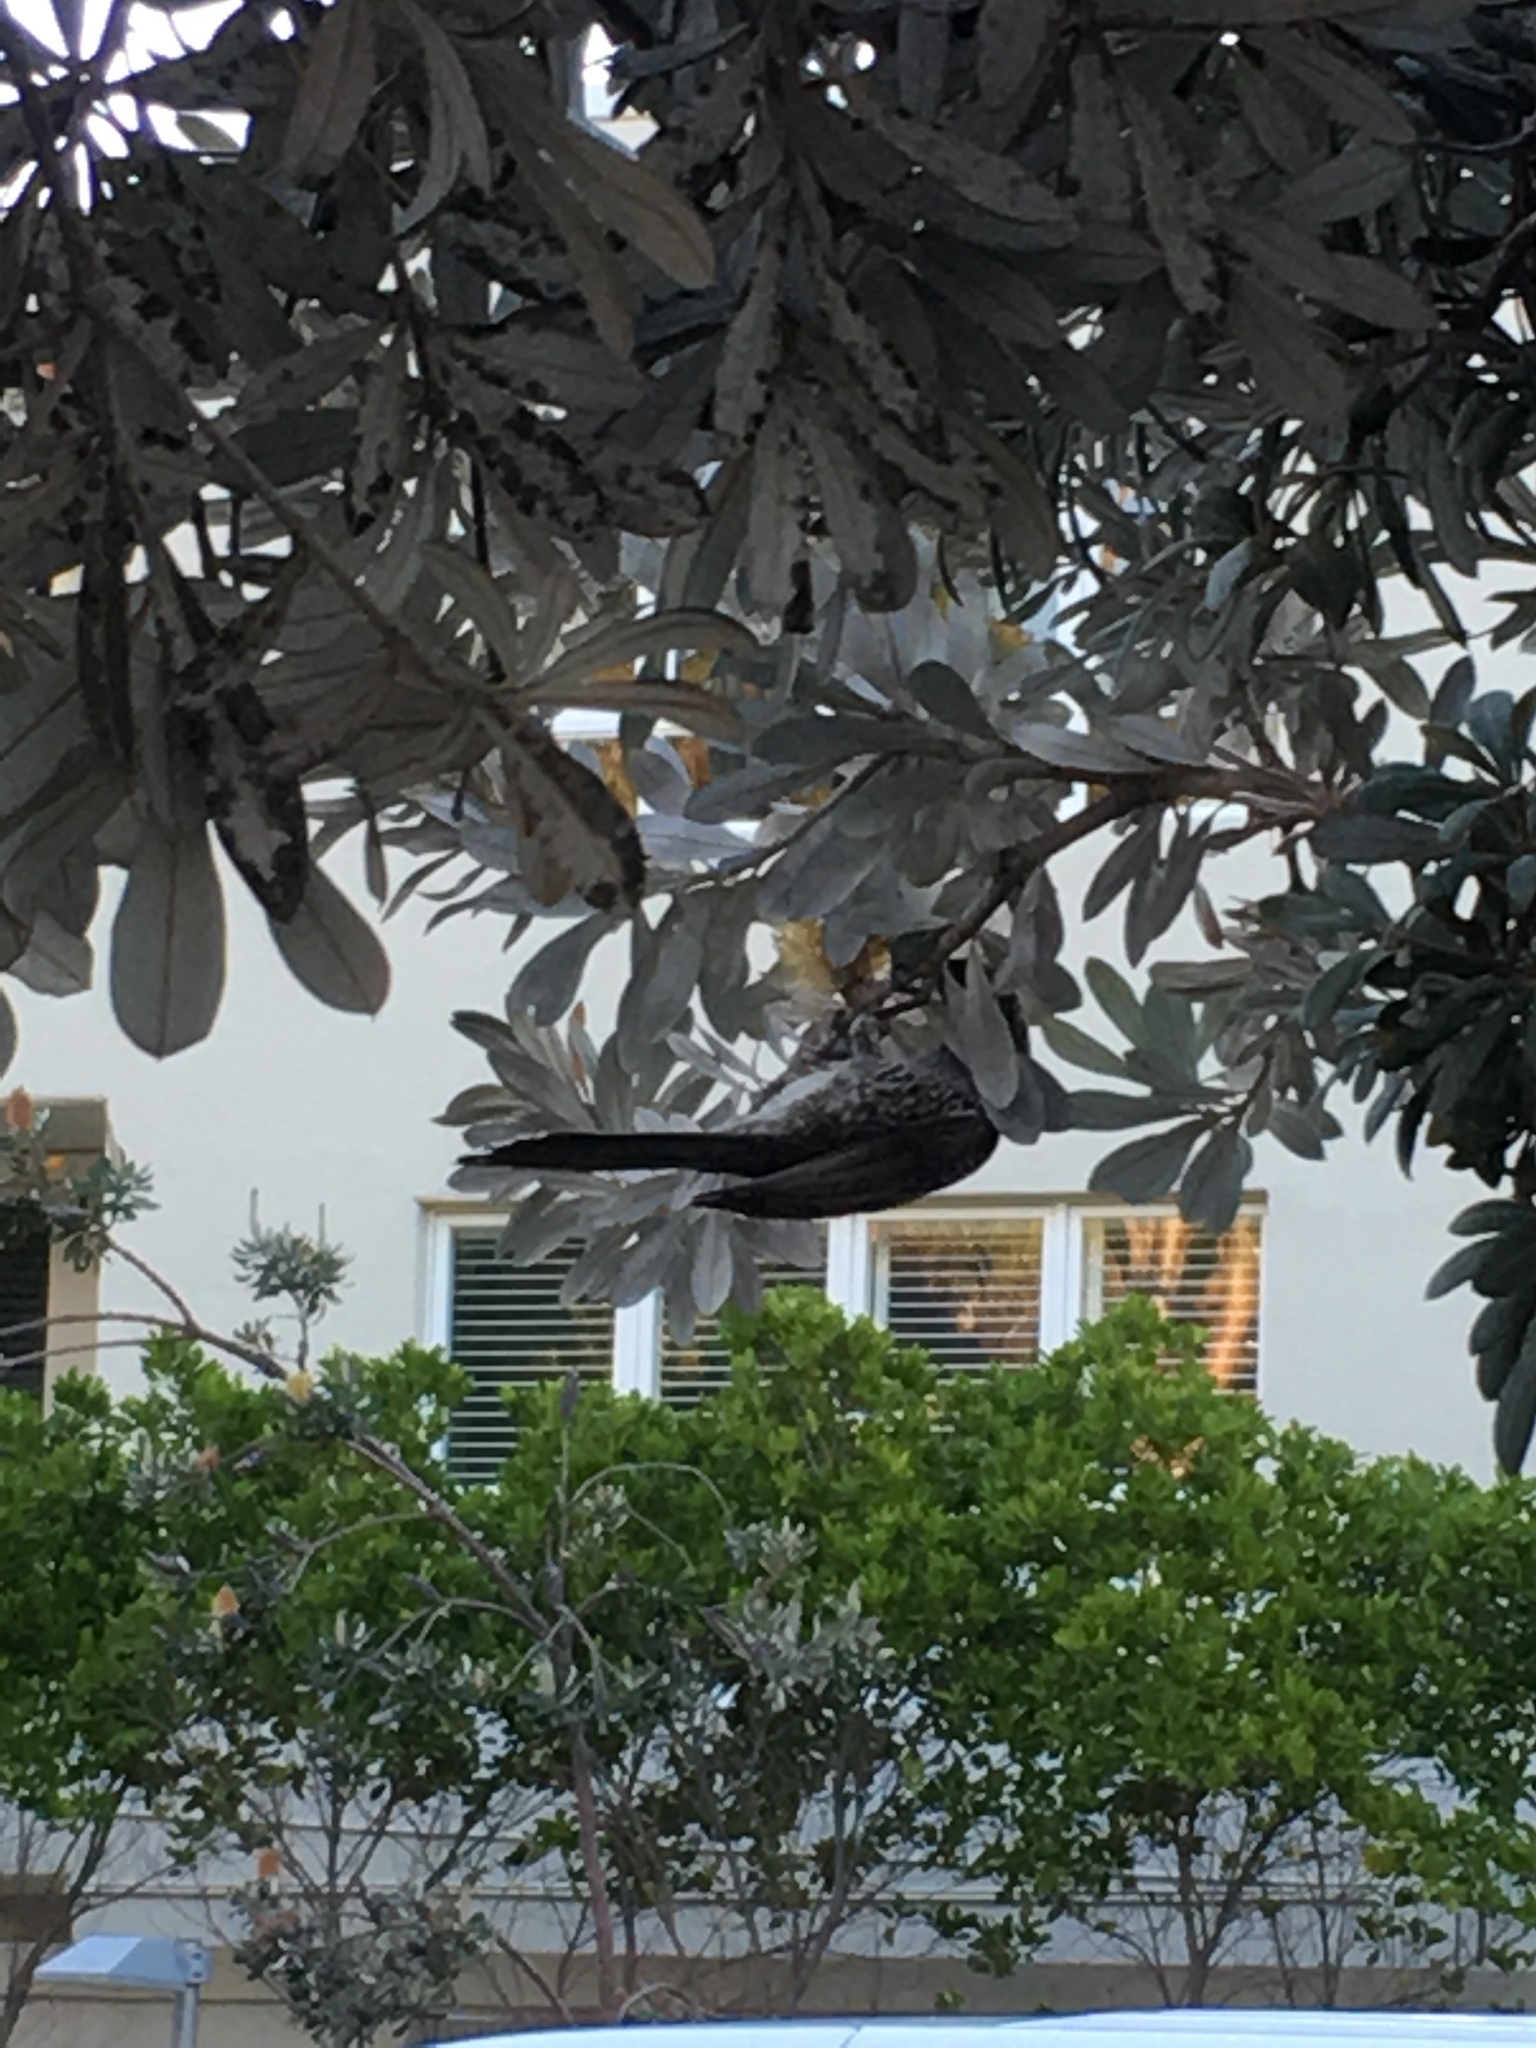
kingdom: Animalia
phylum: Chordata
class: Aves
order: Passeriformes
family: Meliphagidae
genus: Anthochaera
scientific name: Anthochaera chrysoptera
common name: Little wattlebird
